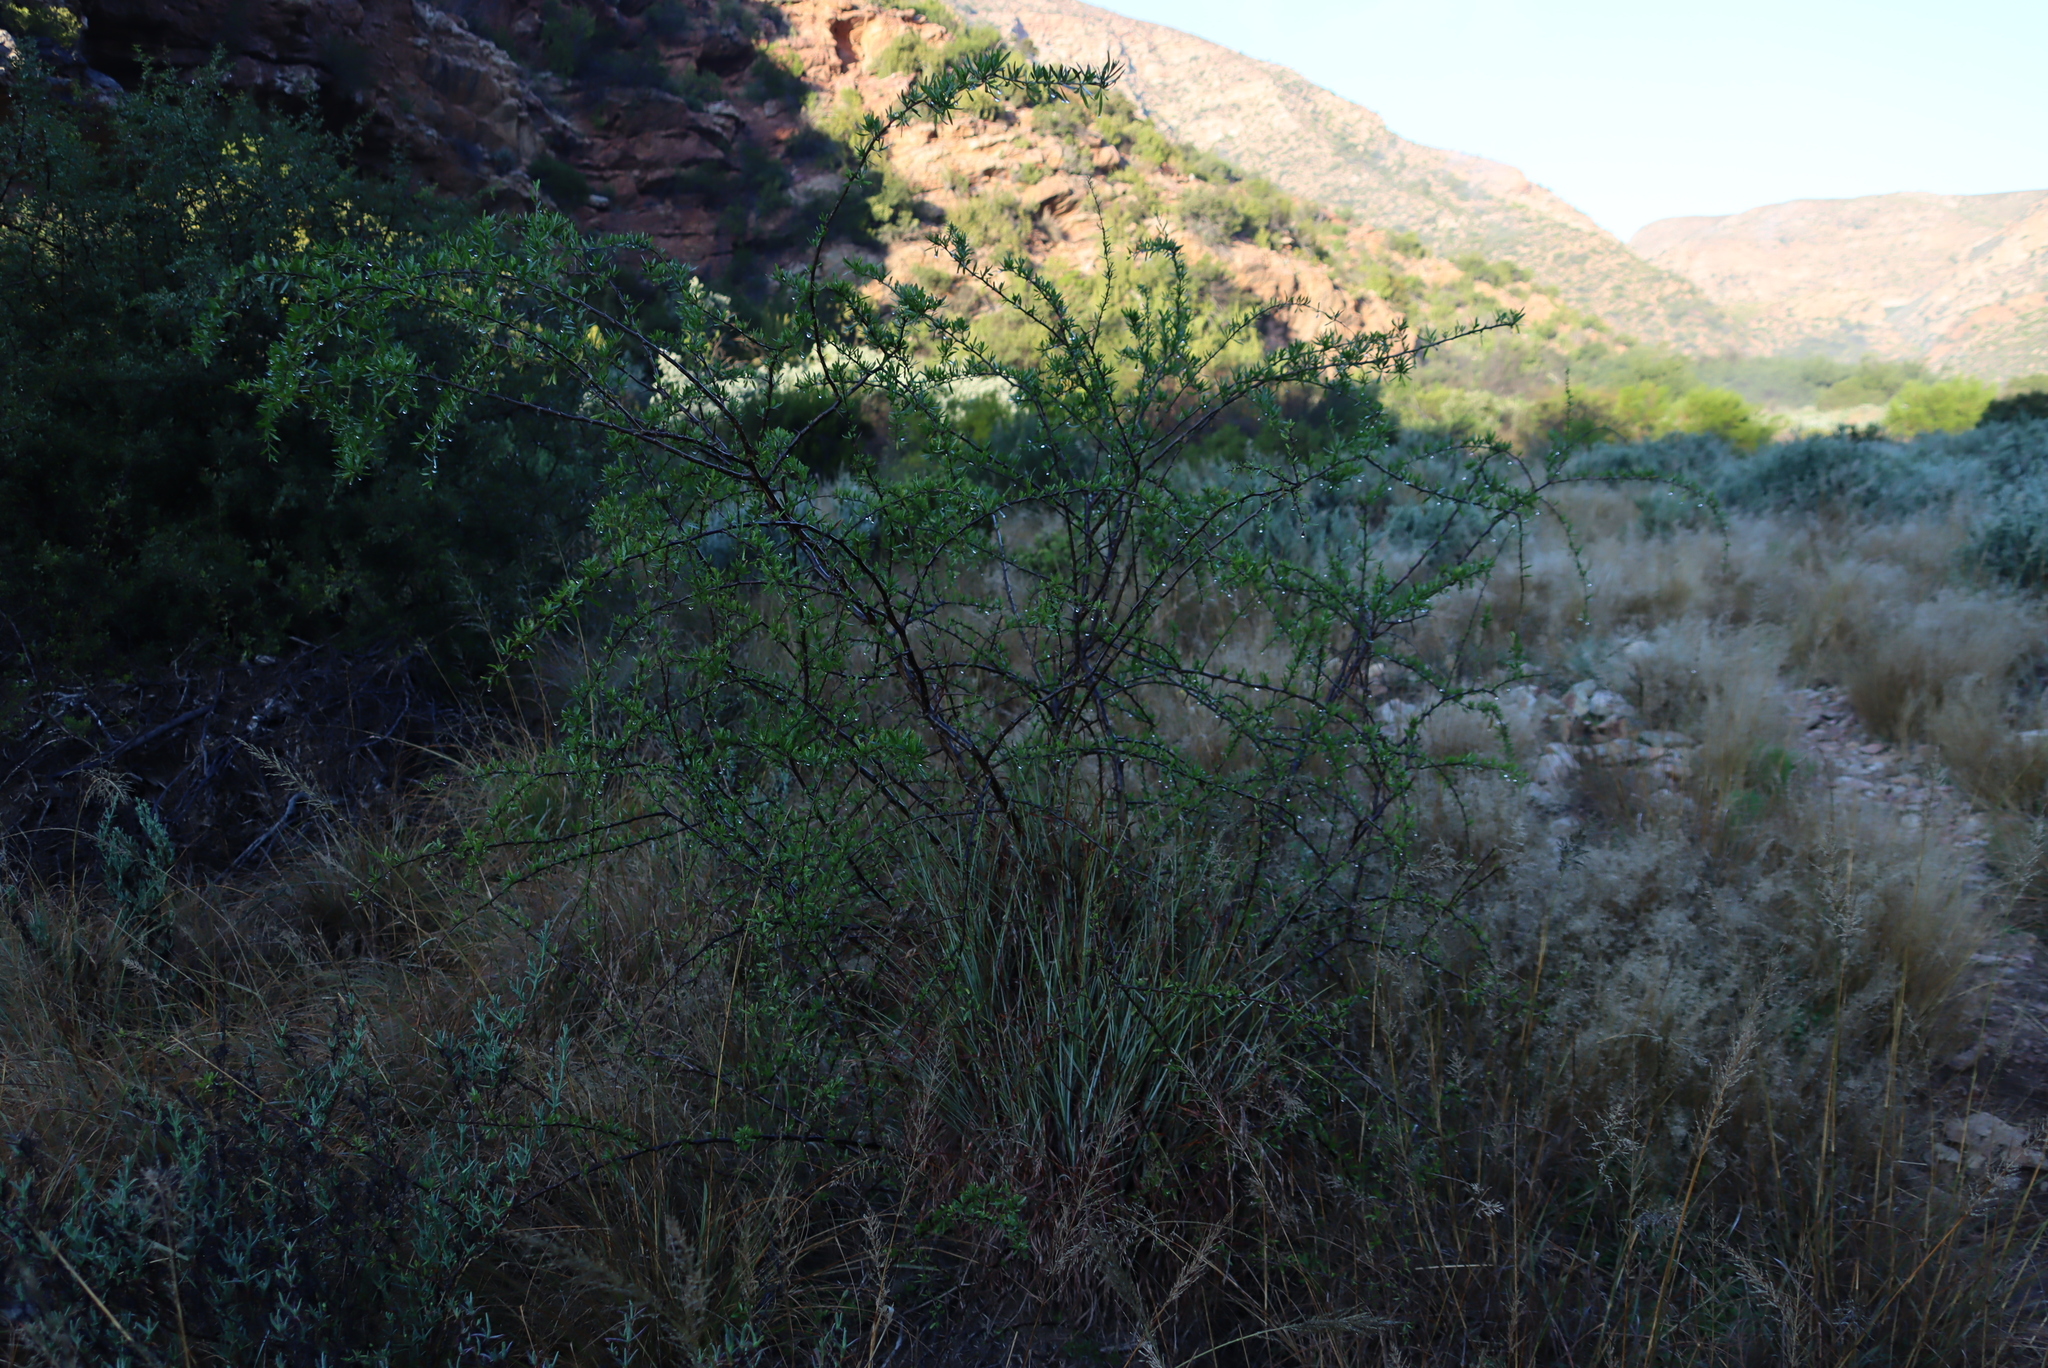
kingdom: Plantae
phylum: Tracheophyta
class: Magnoliopsida
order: Solanales
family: Solanaceae
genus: Lycium
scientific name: Lycium oxycarpum
